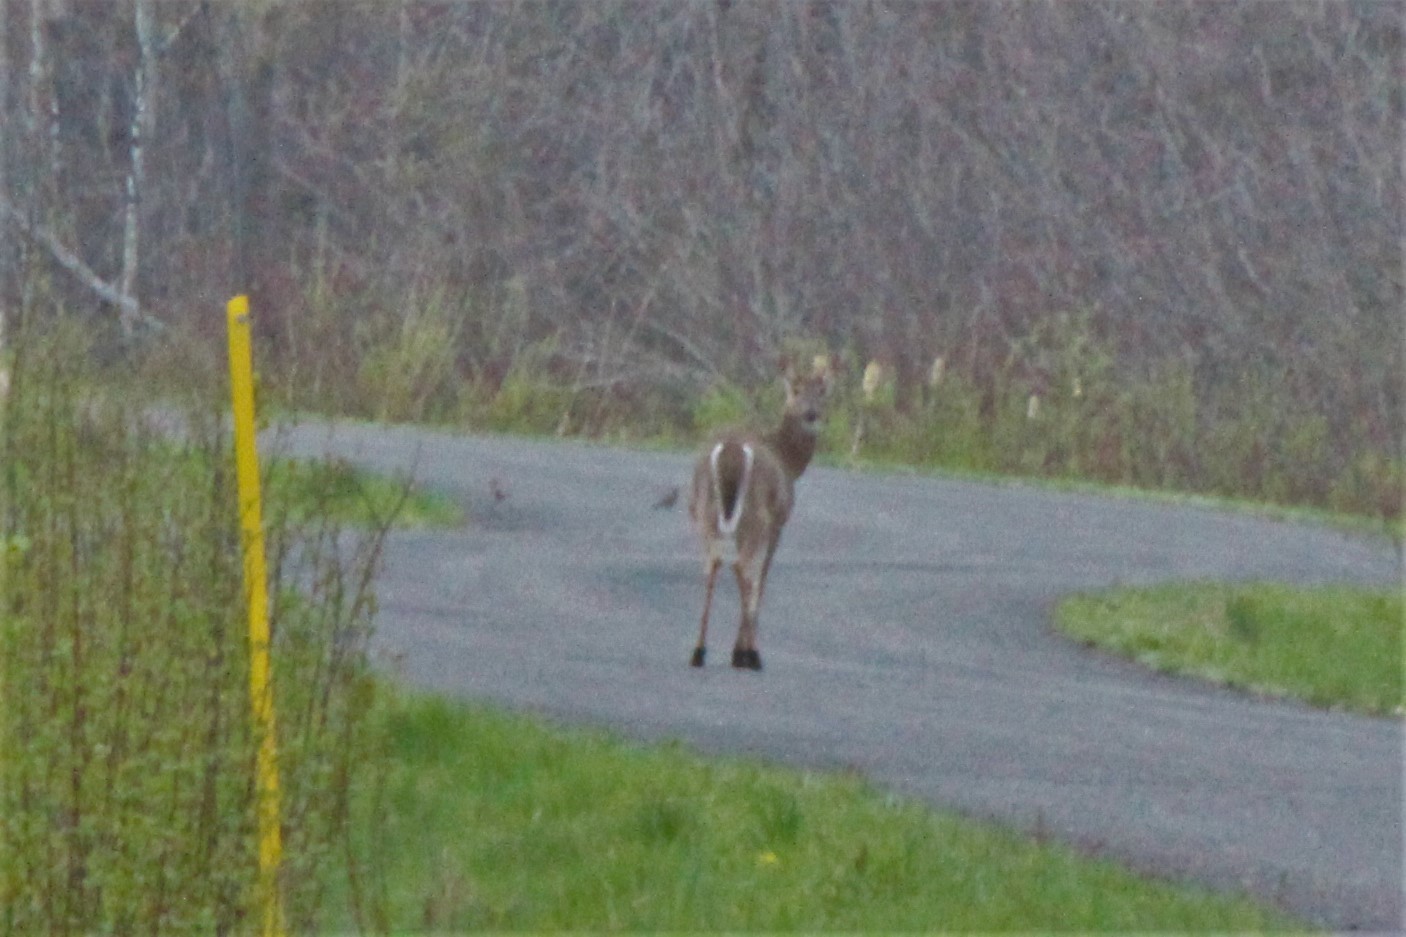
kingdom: Animalia
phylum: Chordata
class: Mammalia
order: Artiodactyla
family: Cervidae
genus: Odocoileus
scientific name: Odocoileus virginianus
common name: White-tailed deer
